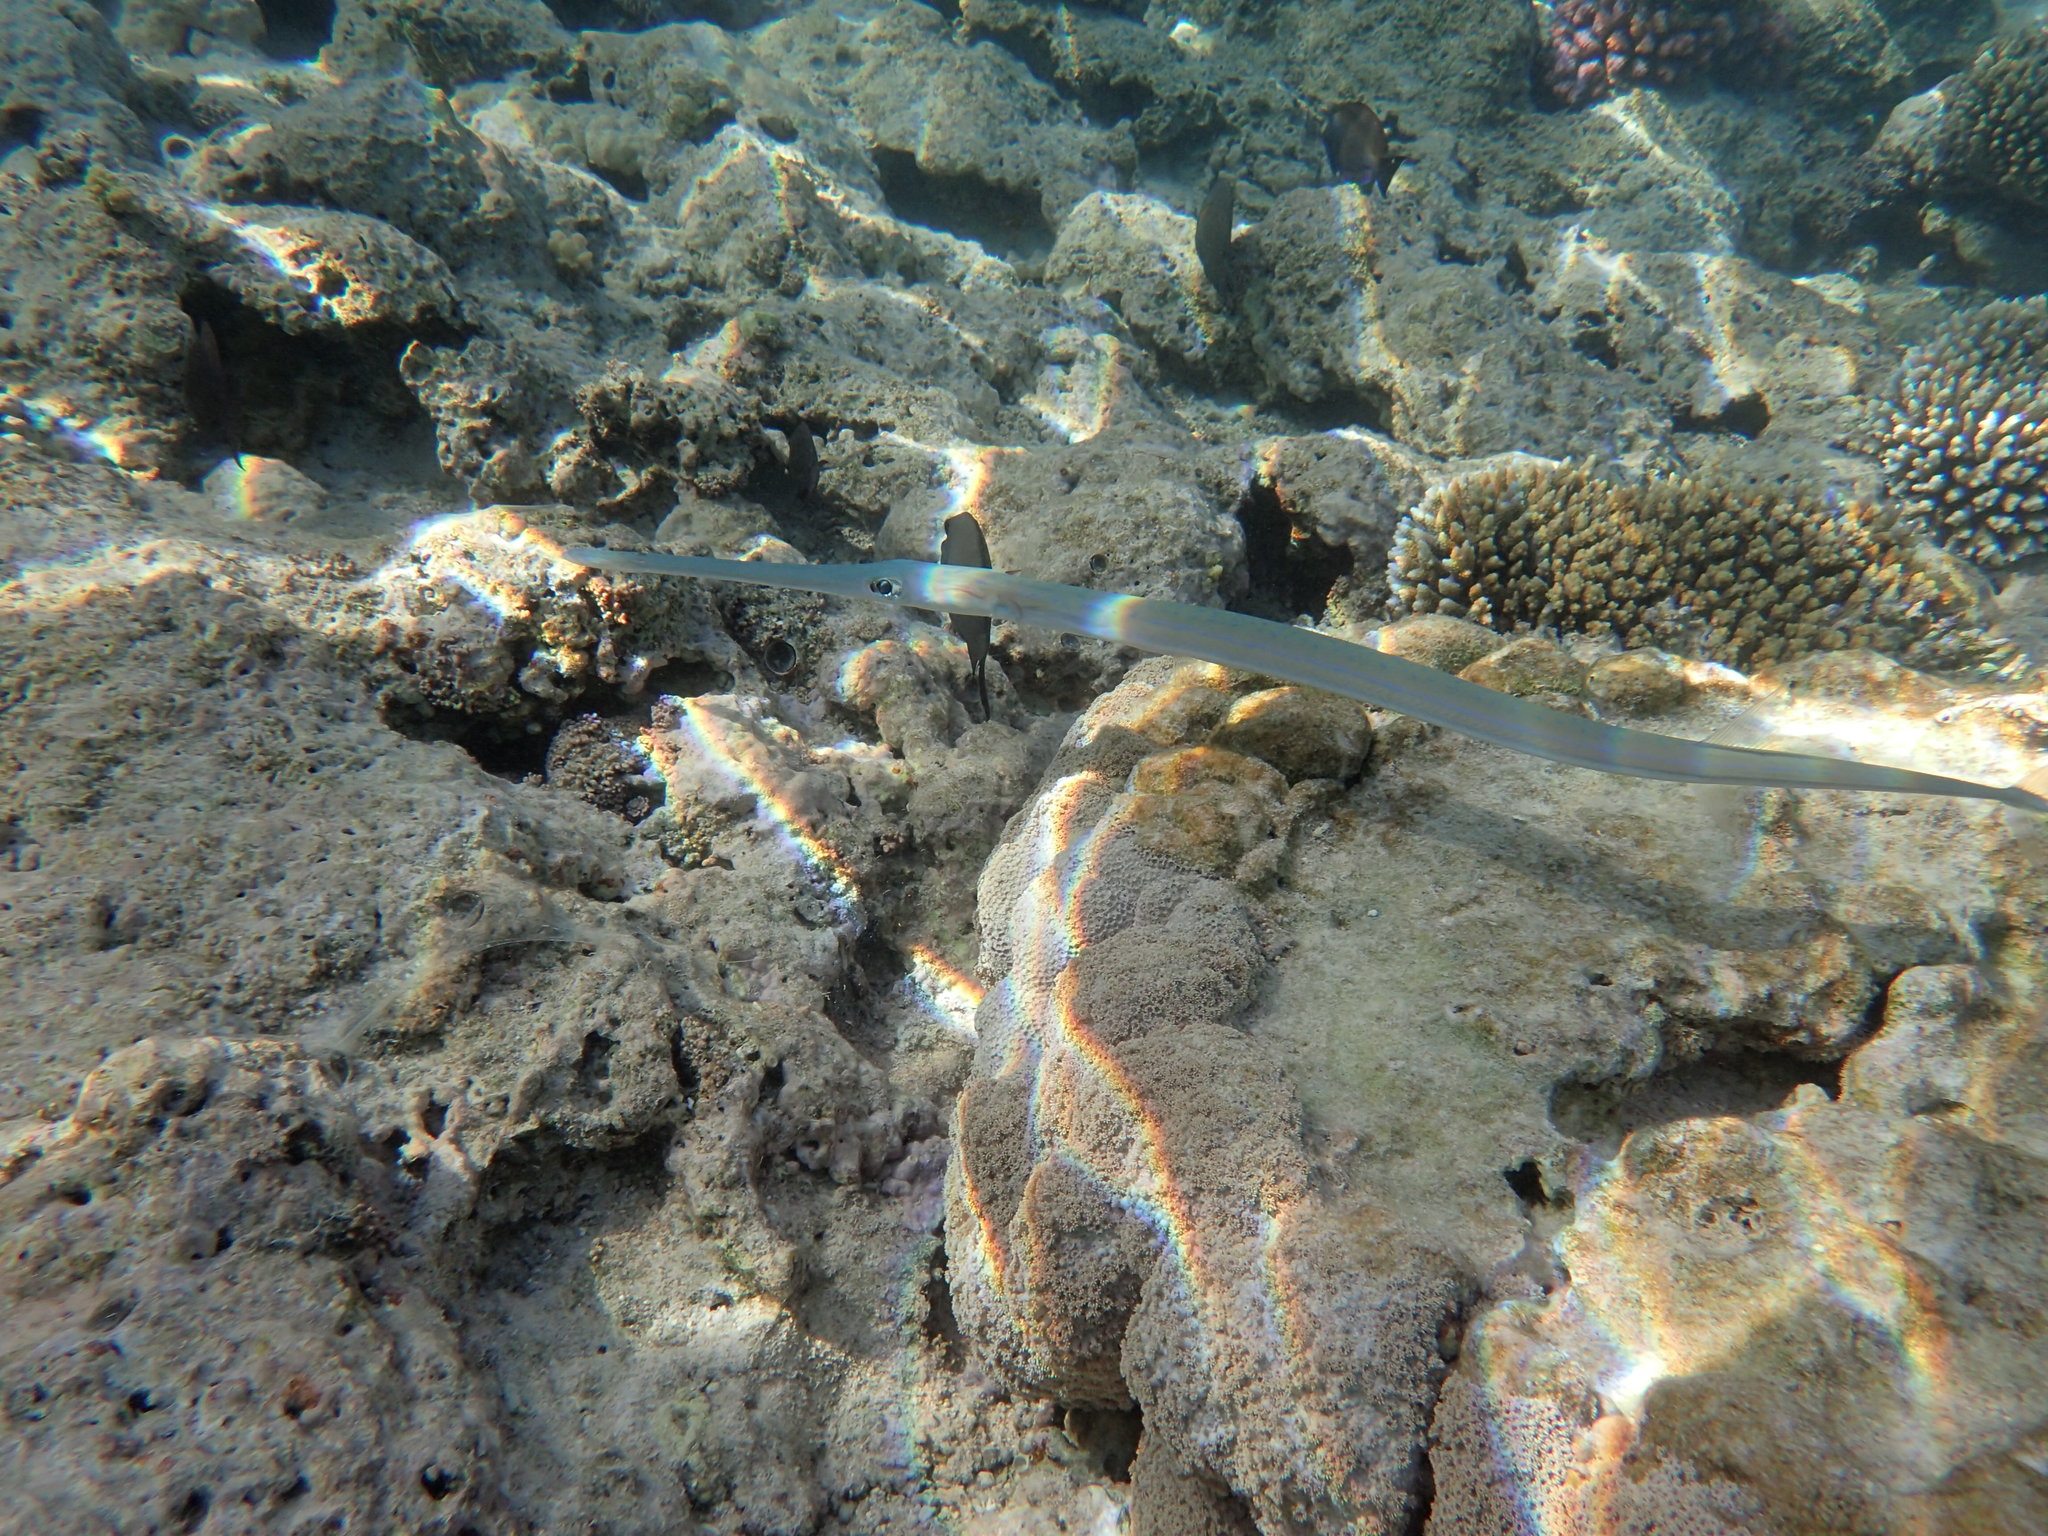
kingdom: Animalia
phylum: Chordata
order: Syngnathiformes
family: Fistulariidae
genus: Fistularia
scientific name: Fistularia commersonii
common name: Bluespotted cornetfish
